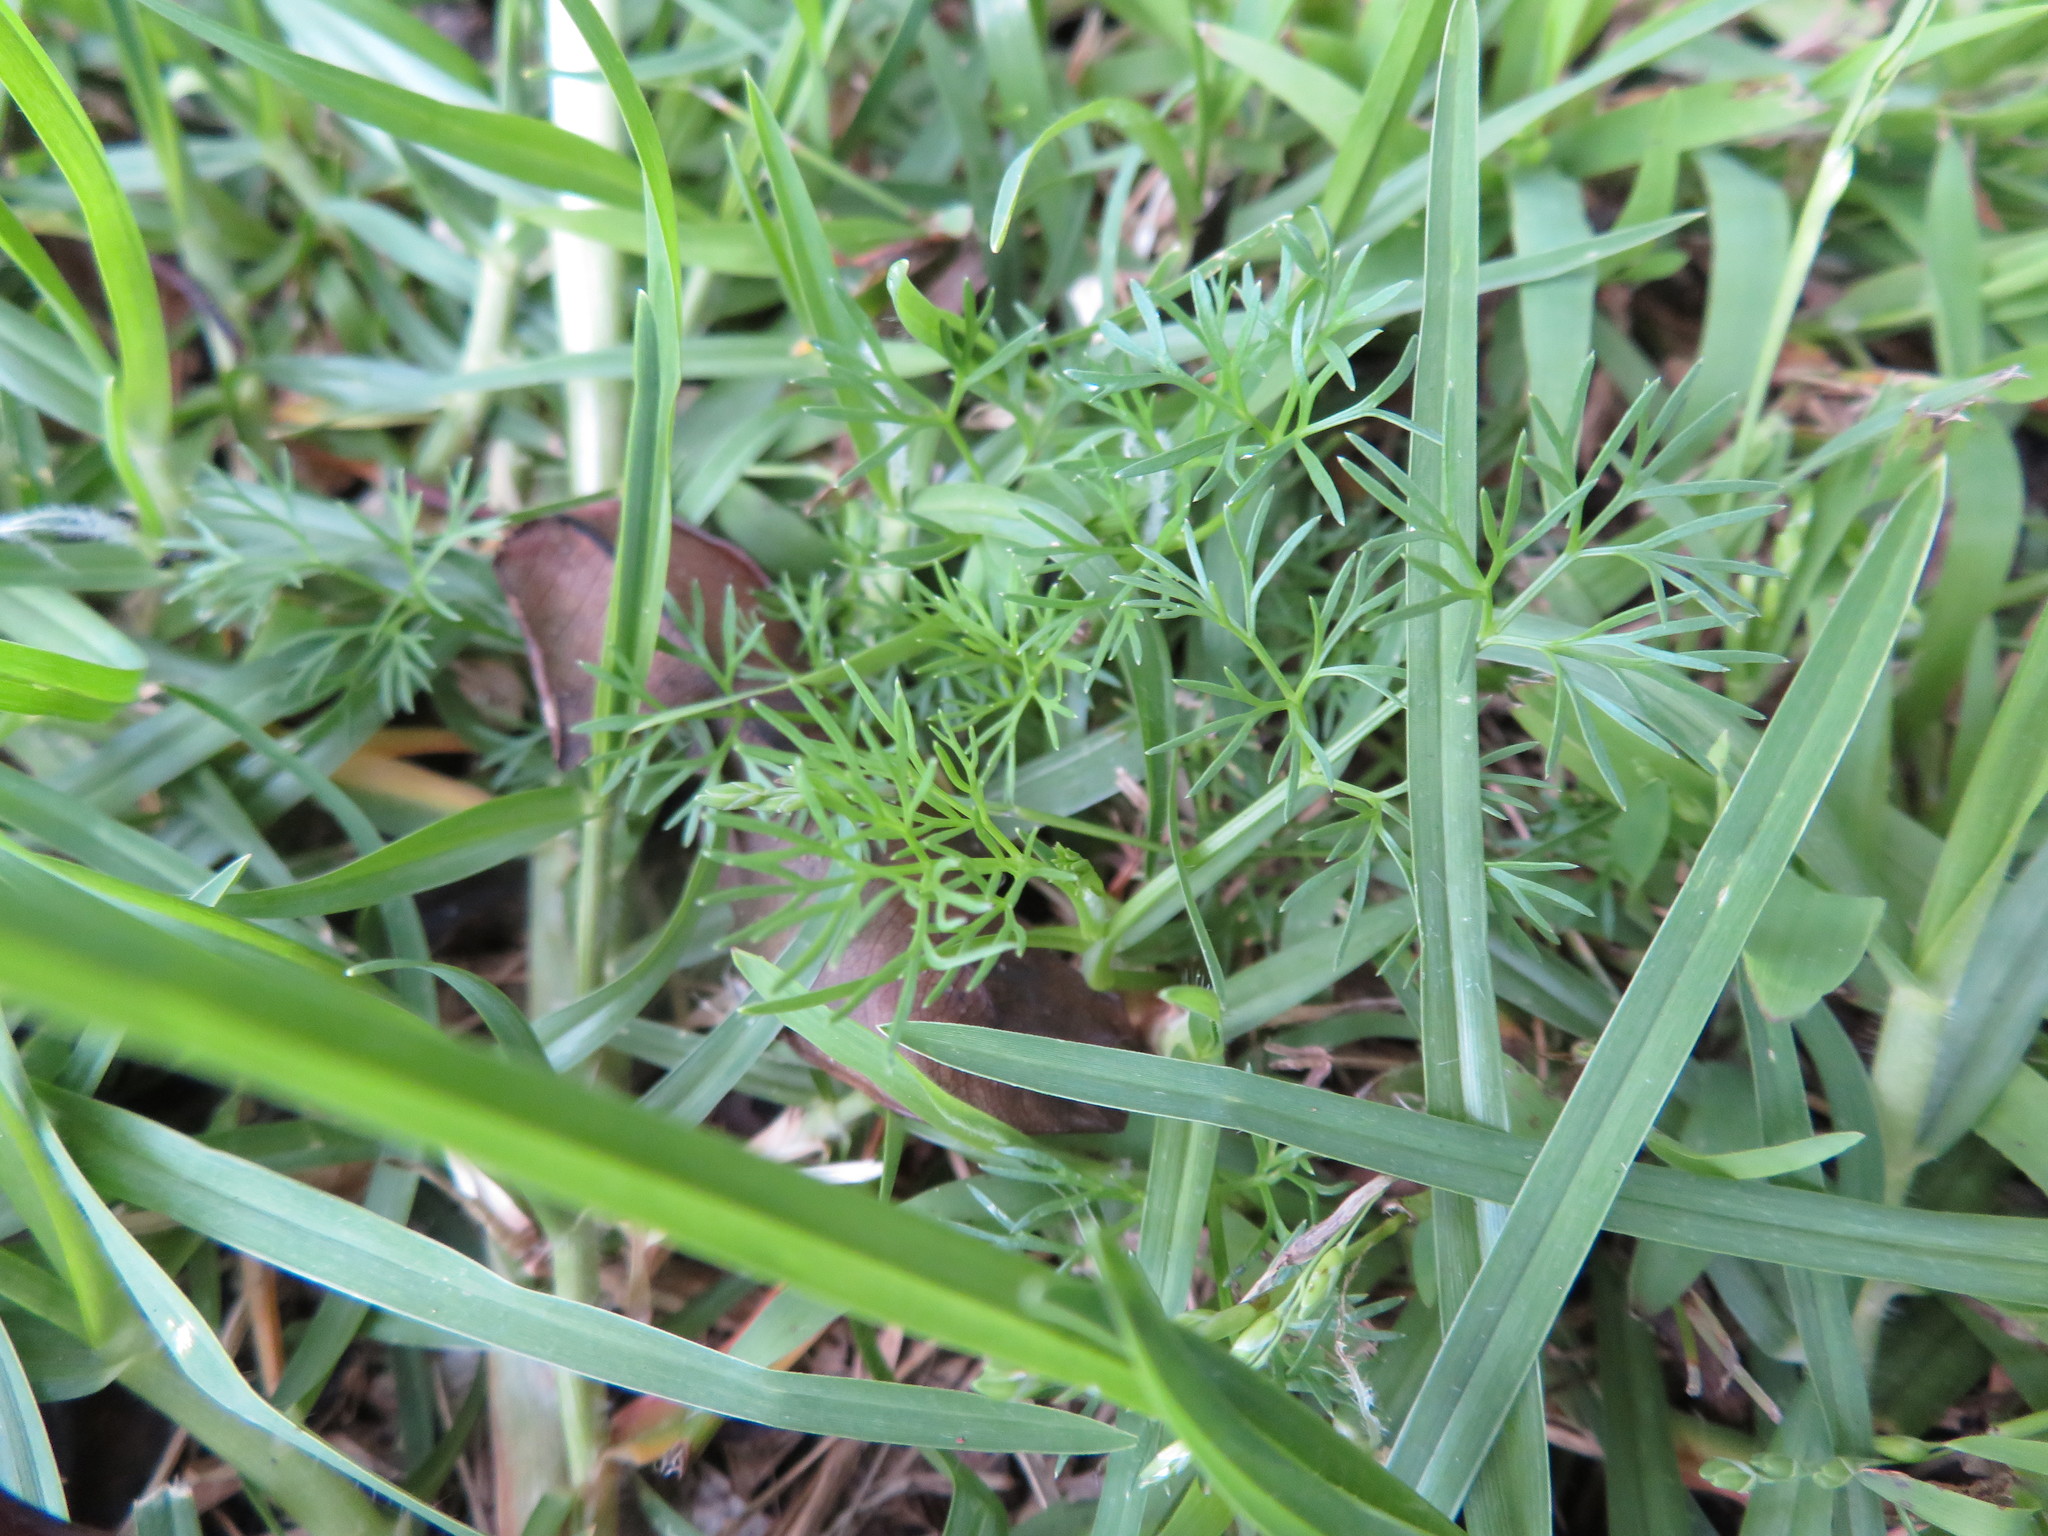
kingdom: Plantae
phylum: Tracheophyta
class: Magnoliopsida
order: Apiales
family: Apiaceae
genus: Cyclospermum
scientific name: Cyclospermum leptophyllum
